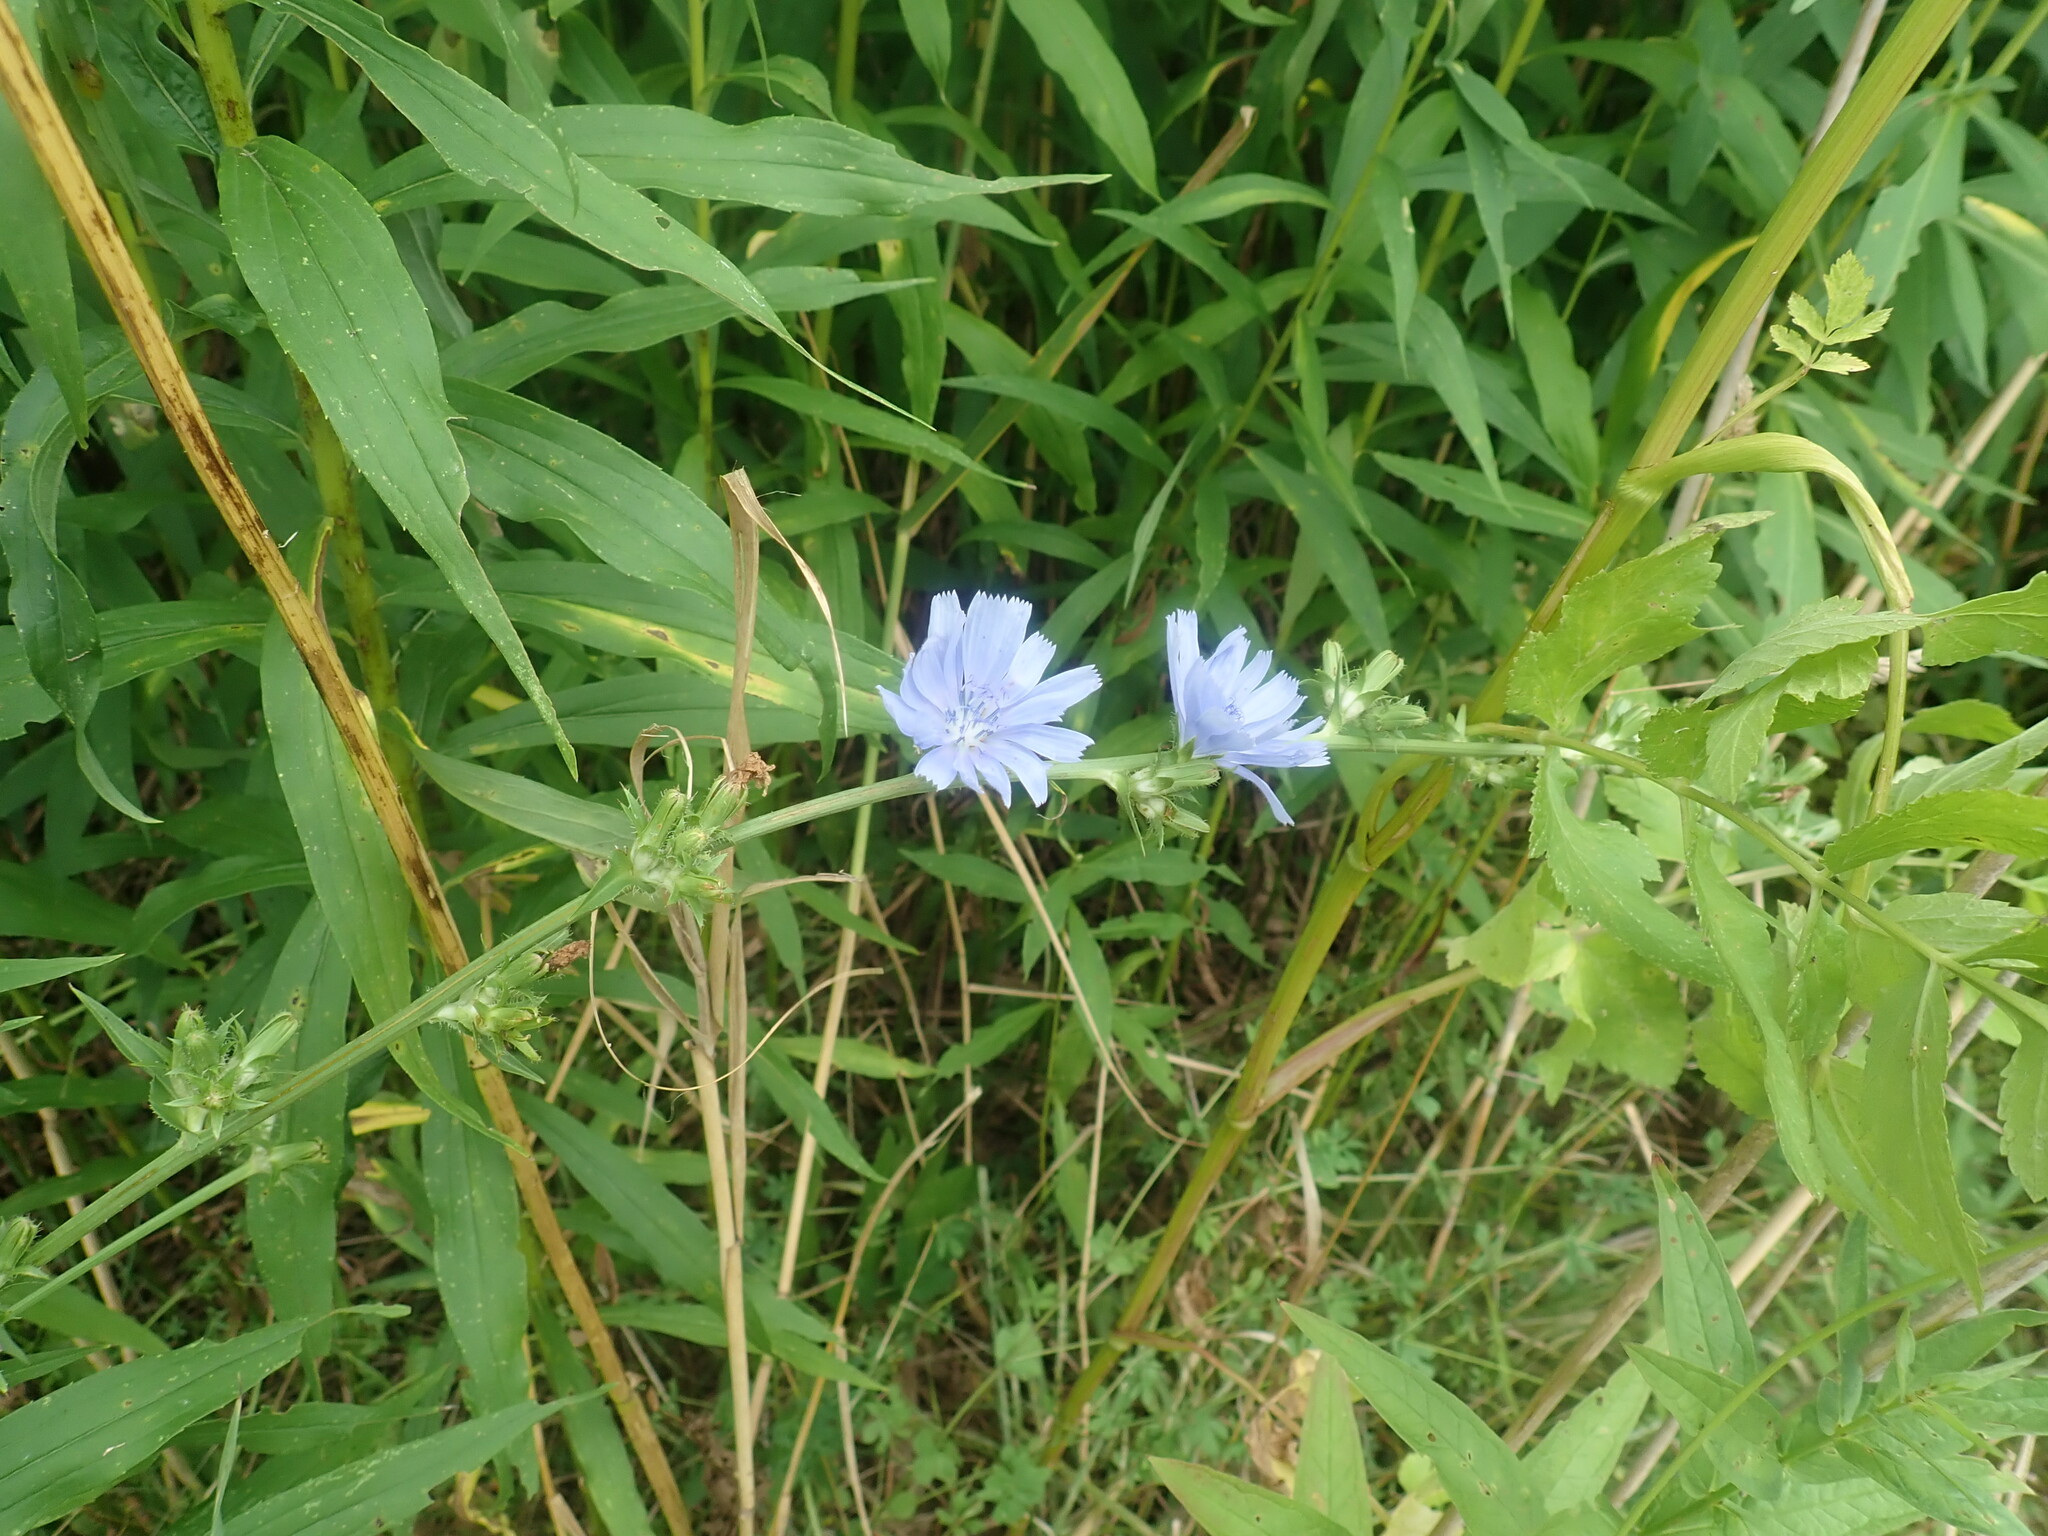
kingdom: Plantae
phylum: Tracheophyta
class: Magnoliopsida
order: Asterales
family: Asteraceae
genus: Cichorium
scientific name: Cichorium intybus
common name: Chicory
